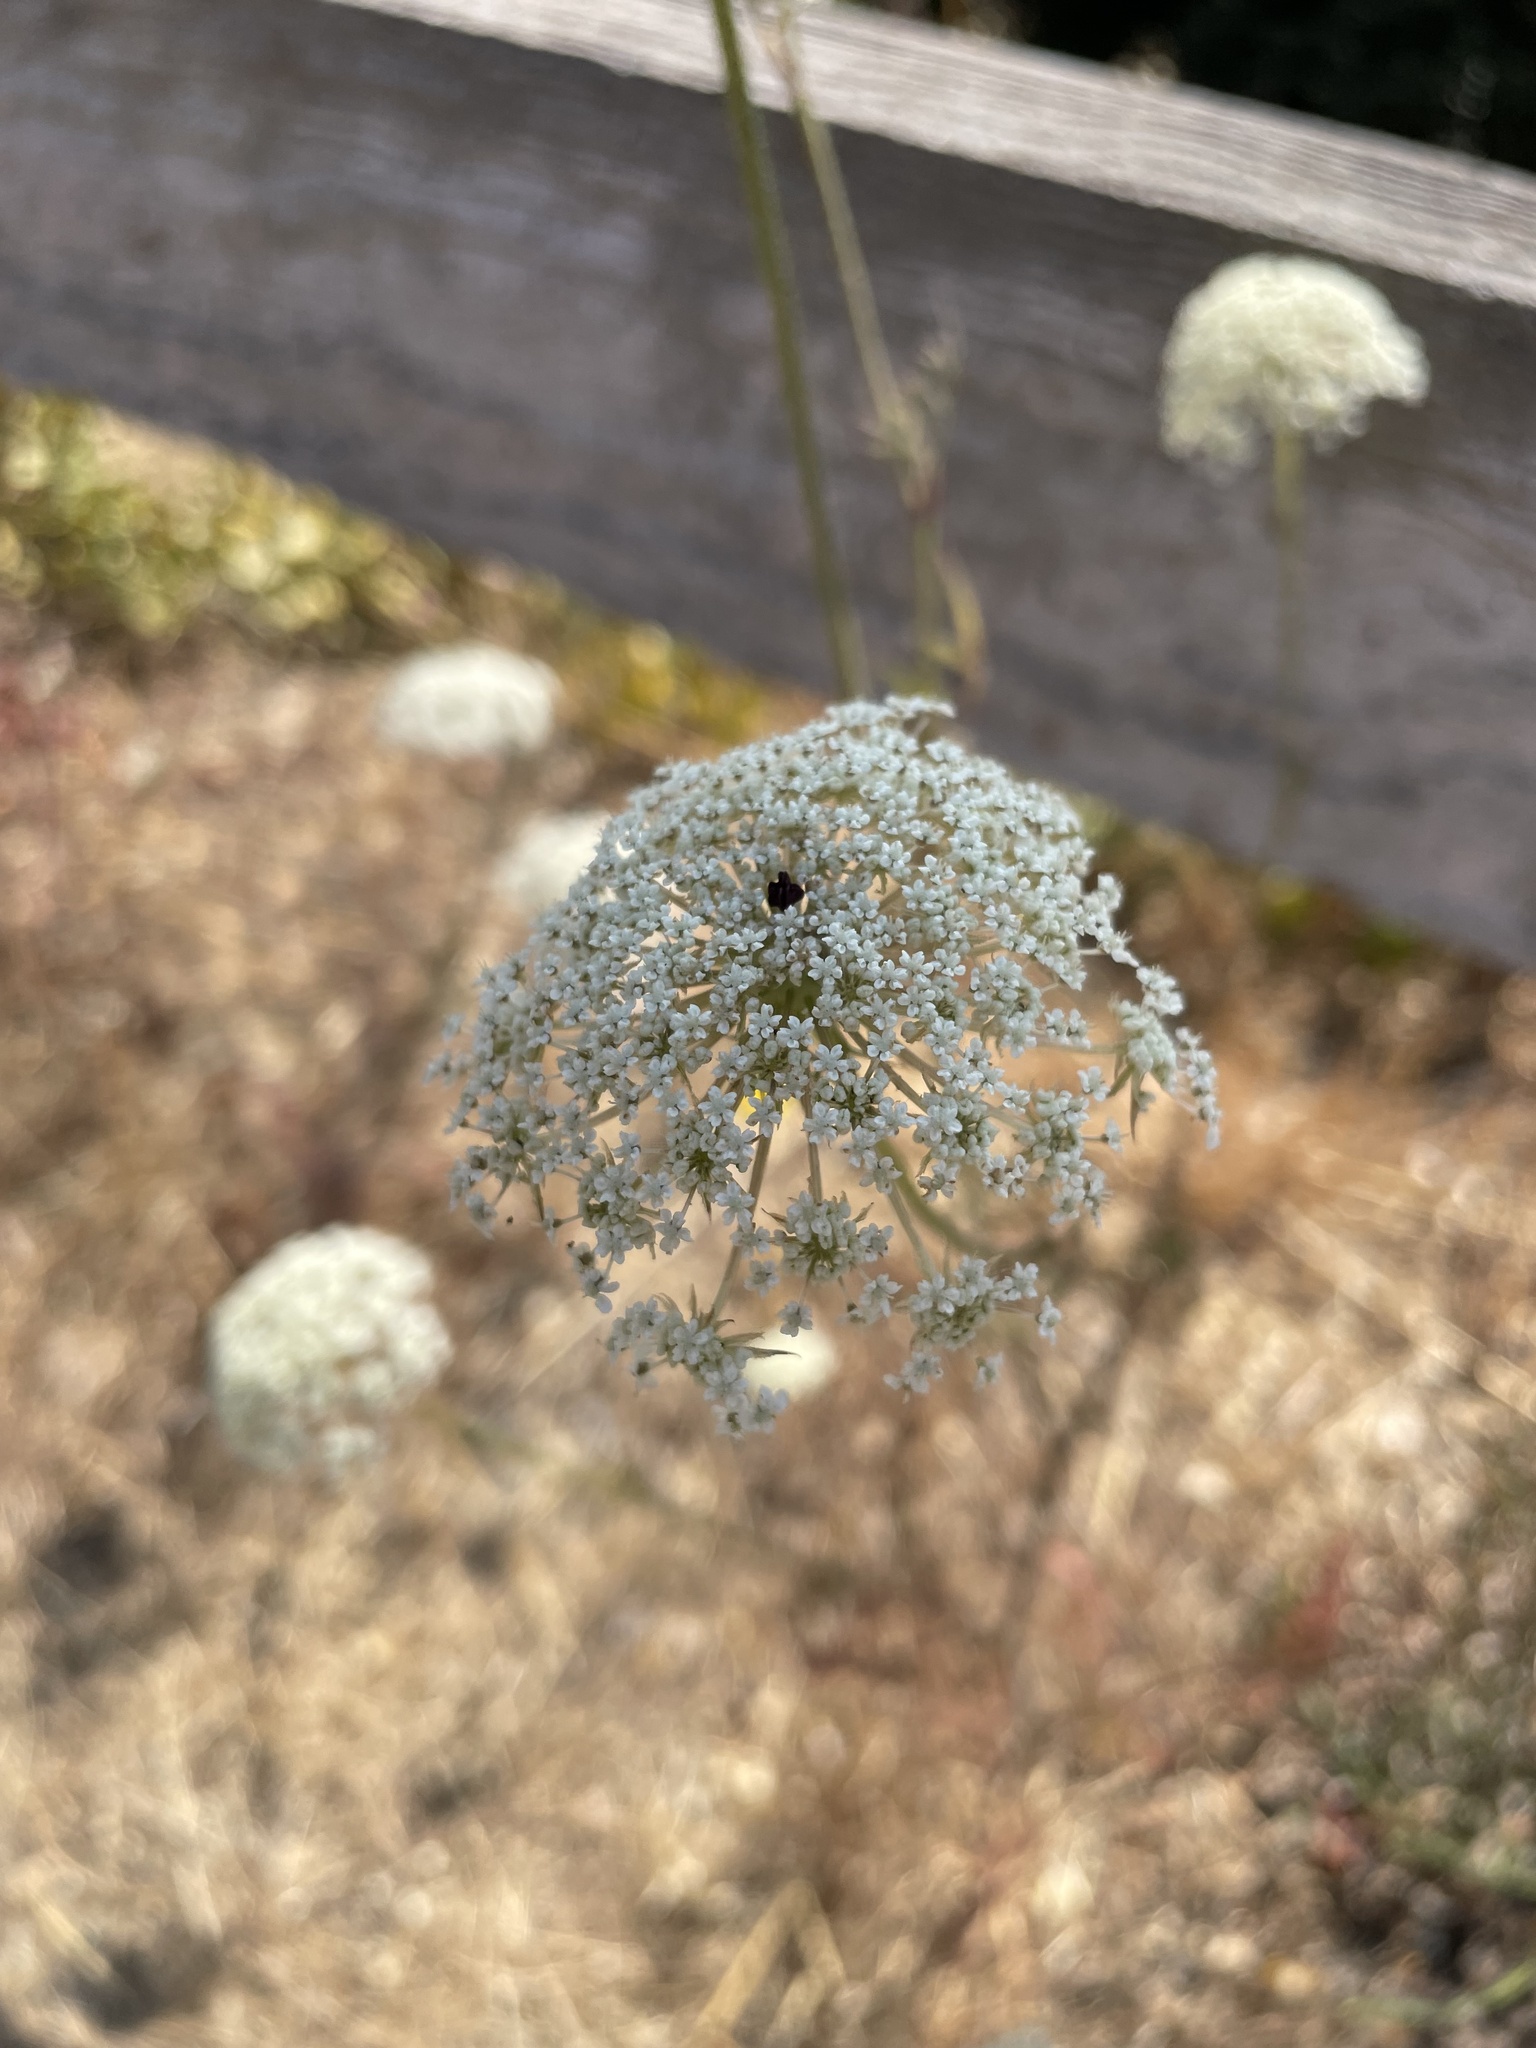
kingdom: Plantae
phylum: Tracheophyta
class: Magnoliopsida
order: Apiales
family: Apiaceae
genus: Daucus
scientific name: Daucus carota
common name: Wild carrot
